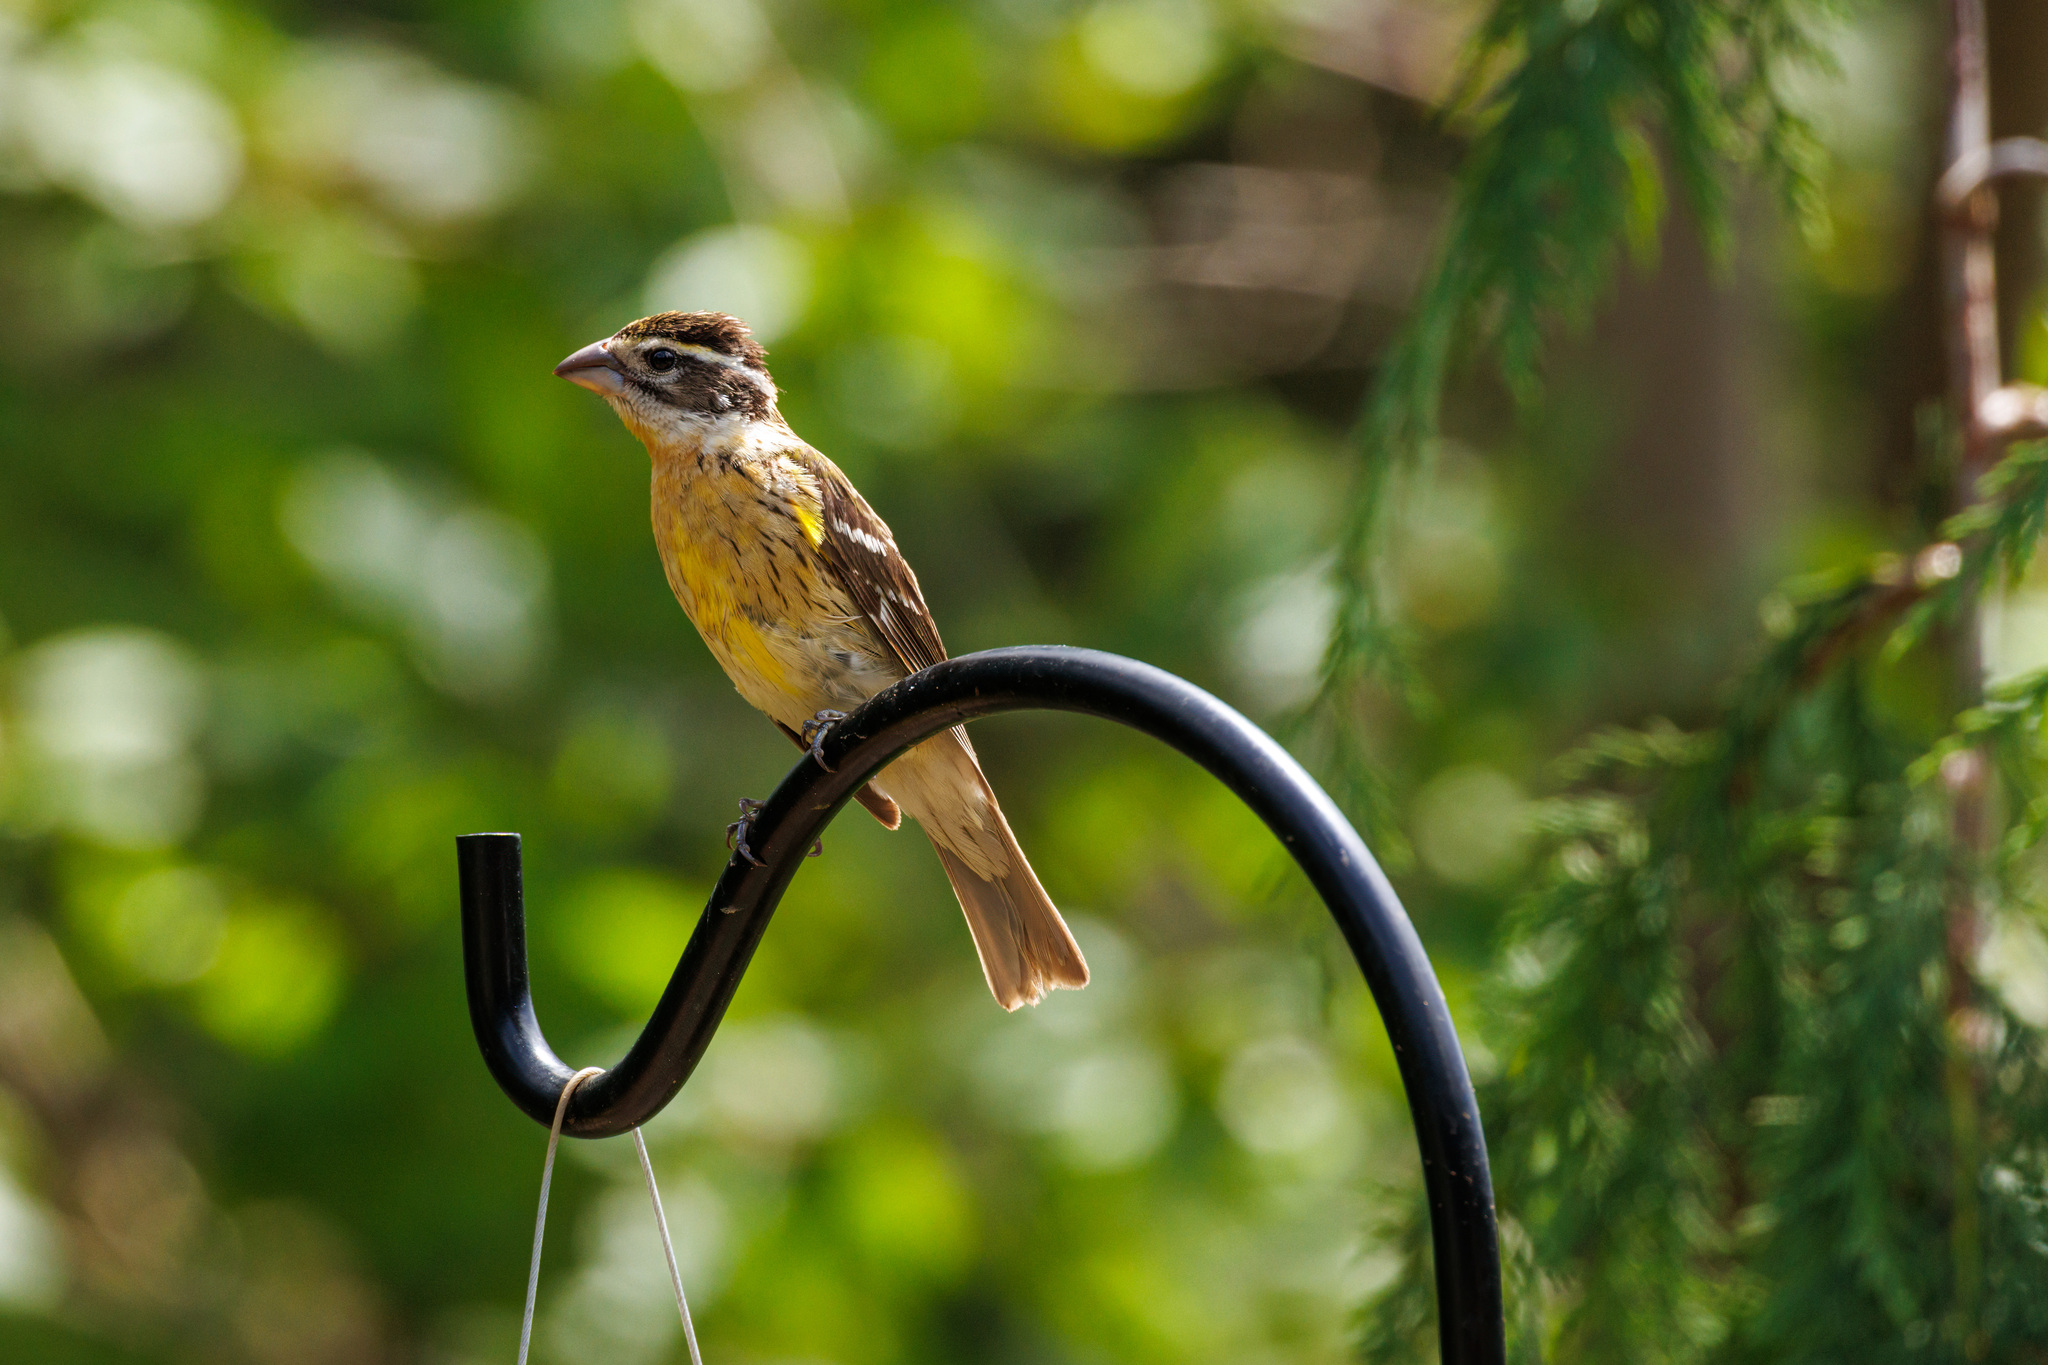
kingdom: Animalia
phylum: Chordata
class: Aves
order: Passeriformes
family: Cardinalidae
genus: Pheucticus
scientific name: Pheucticus melanocephalus
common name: Black-headed grosbeak
